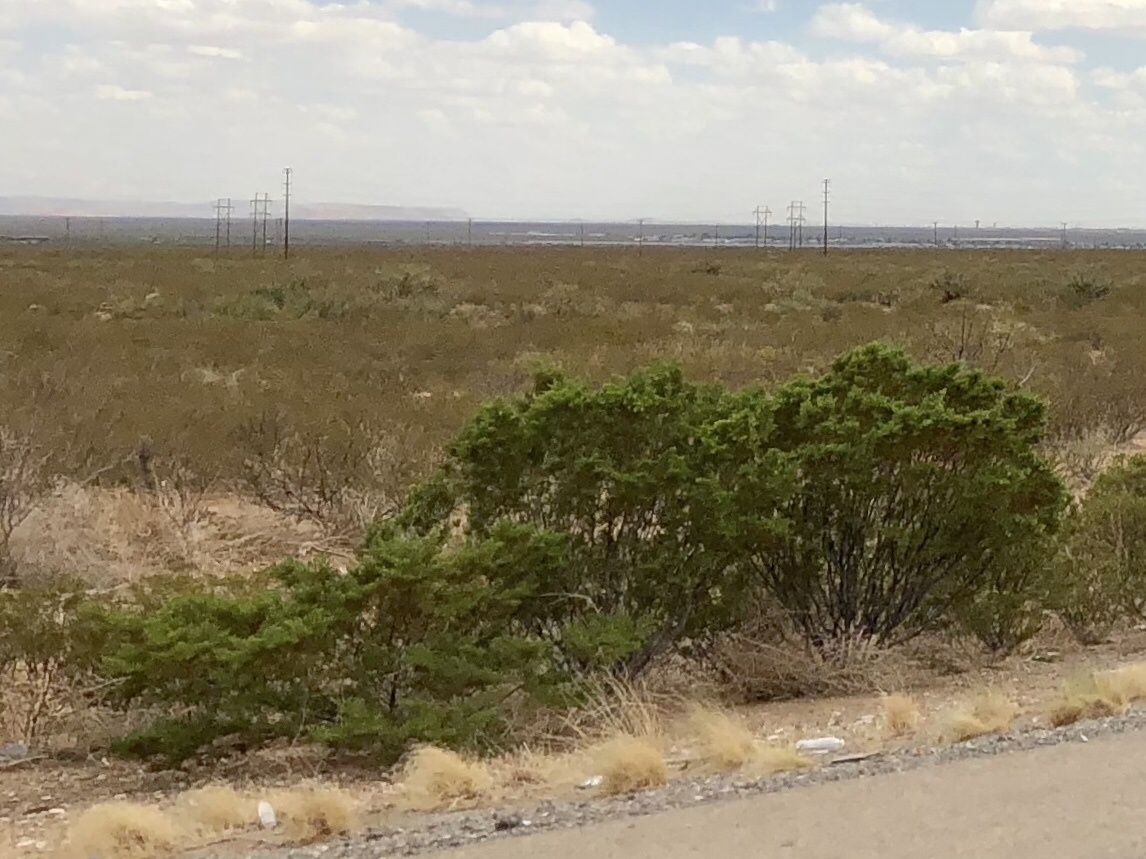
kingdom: Plantae
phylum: Tracheophyta
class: Magnoliopsida
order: Zygophyllales
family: Zygophyllaceae
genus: Larrea
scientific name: Larrea tridentata
